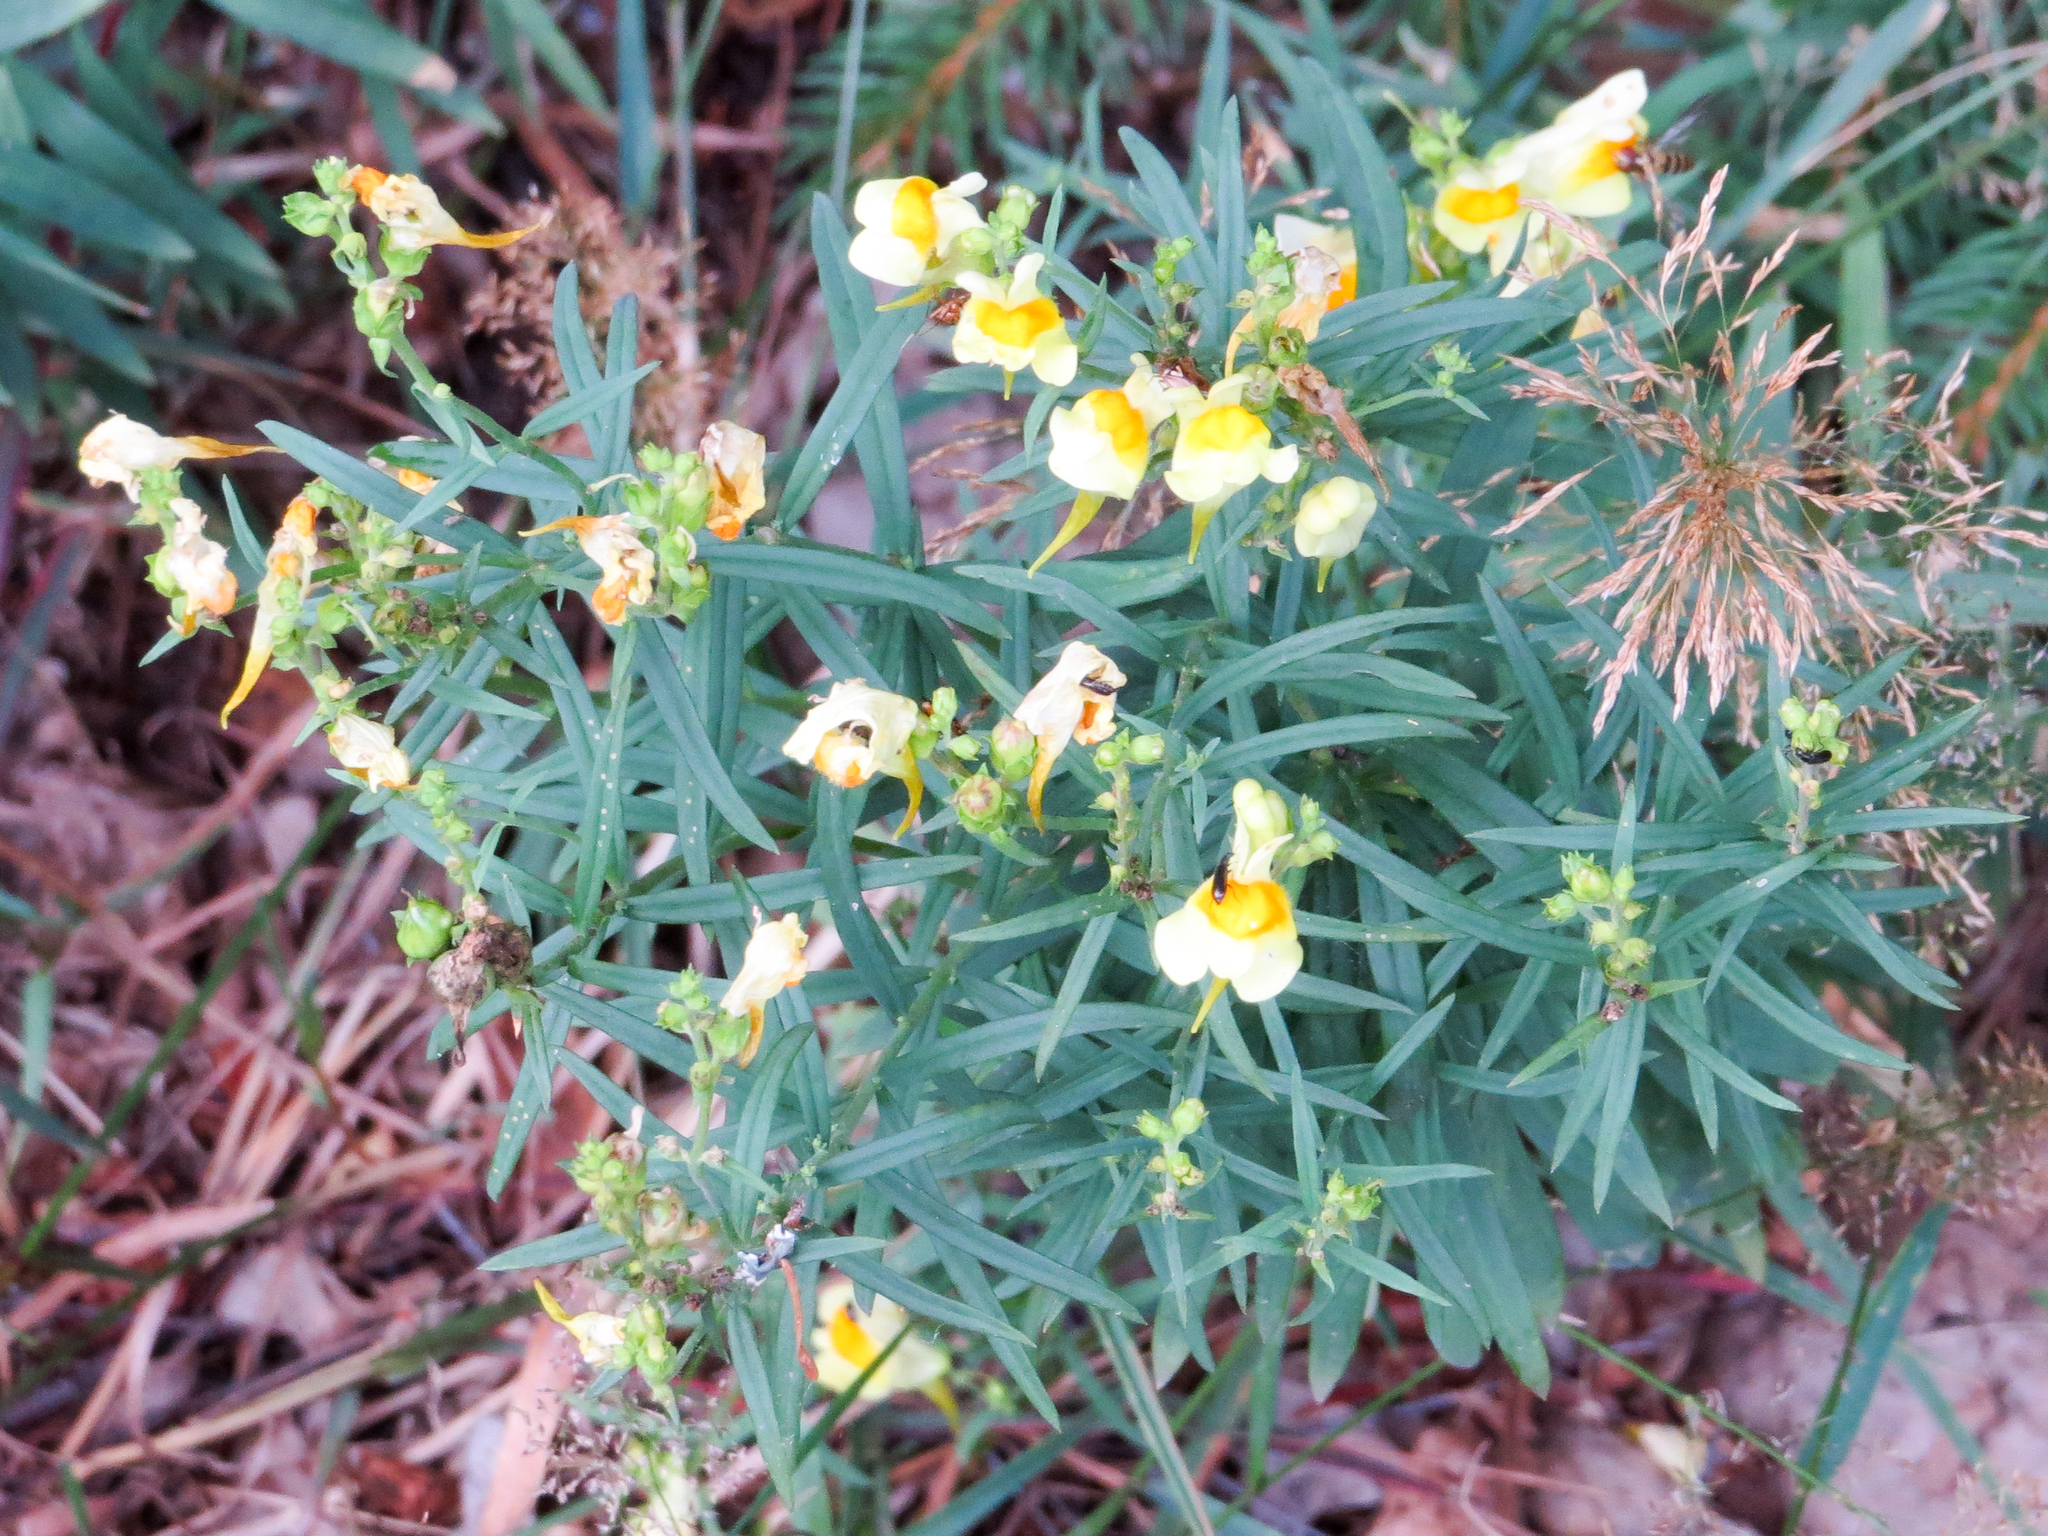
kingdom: Plantae
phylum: Tracheophyta
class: Magnoliopsida
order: Lamiales
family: Plantaginaceae
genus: Linaria
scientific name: Linaria vulgaris
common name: Butter and eggs
